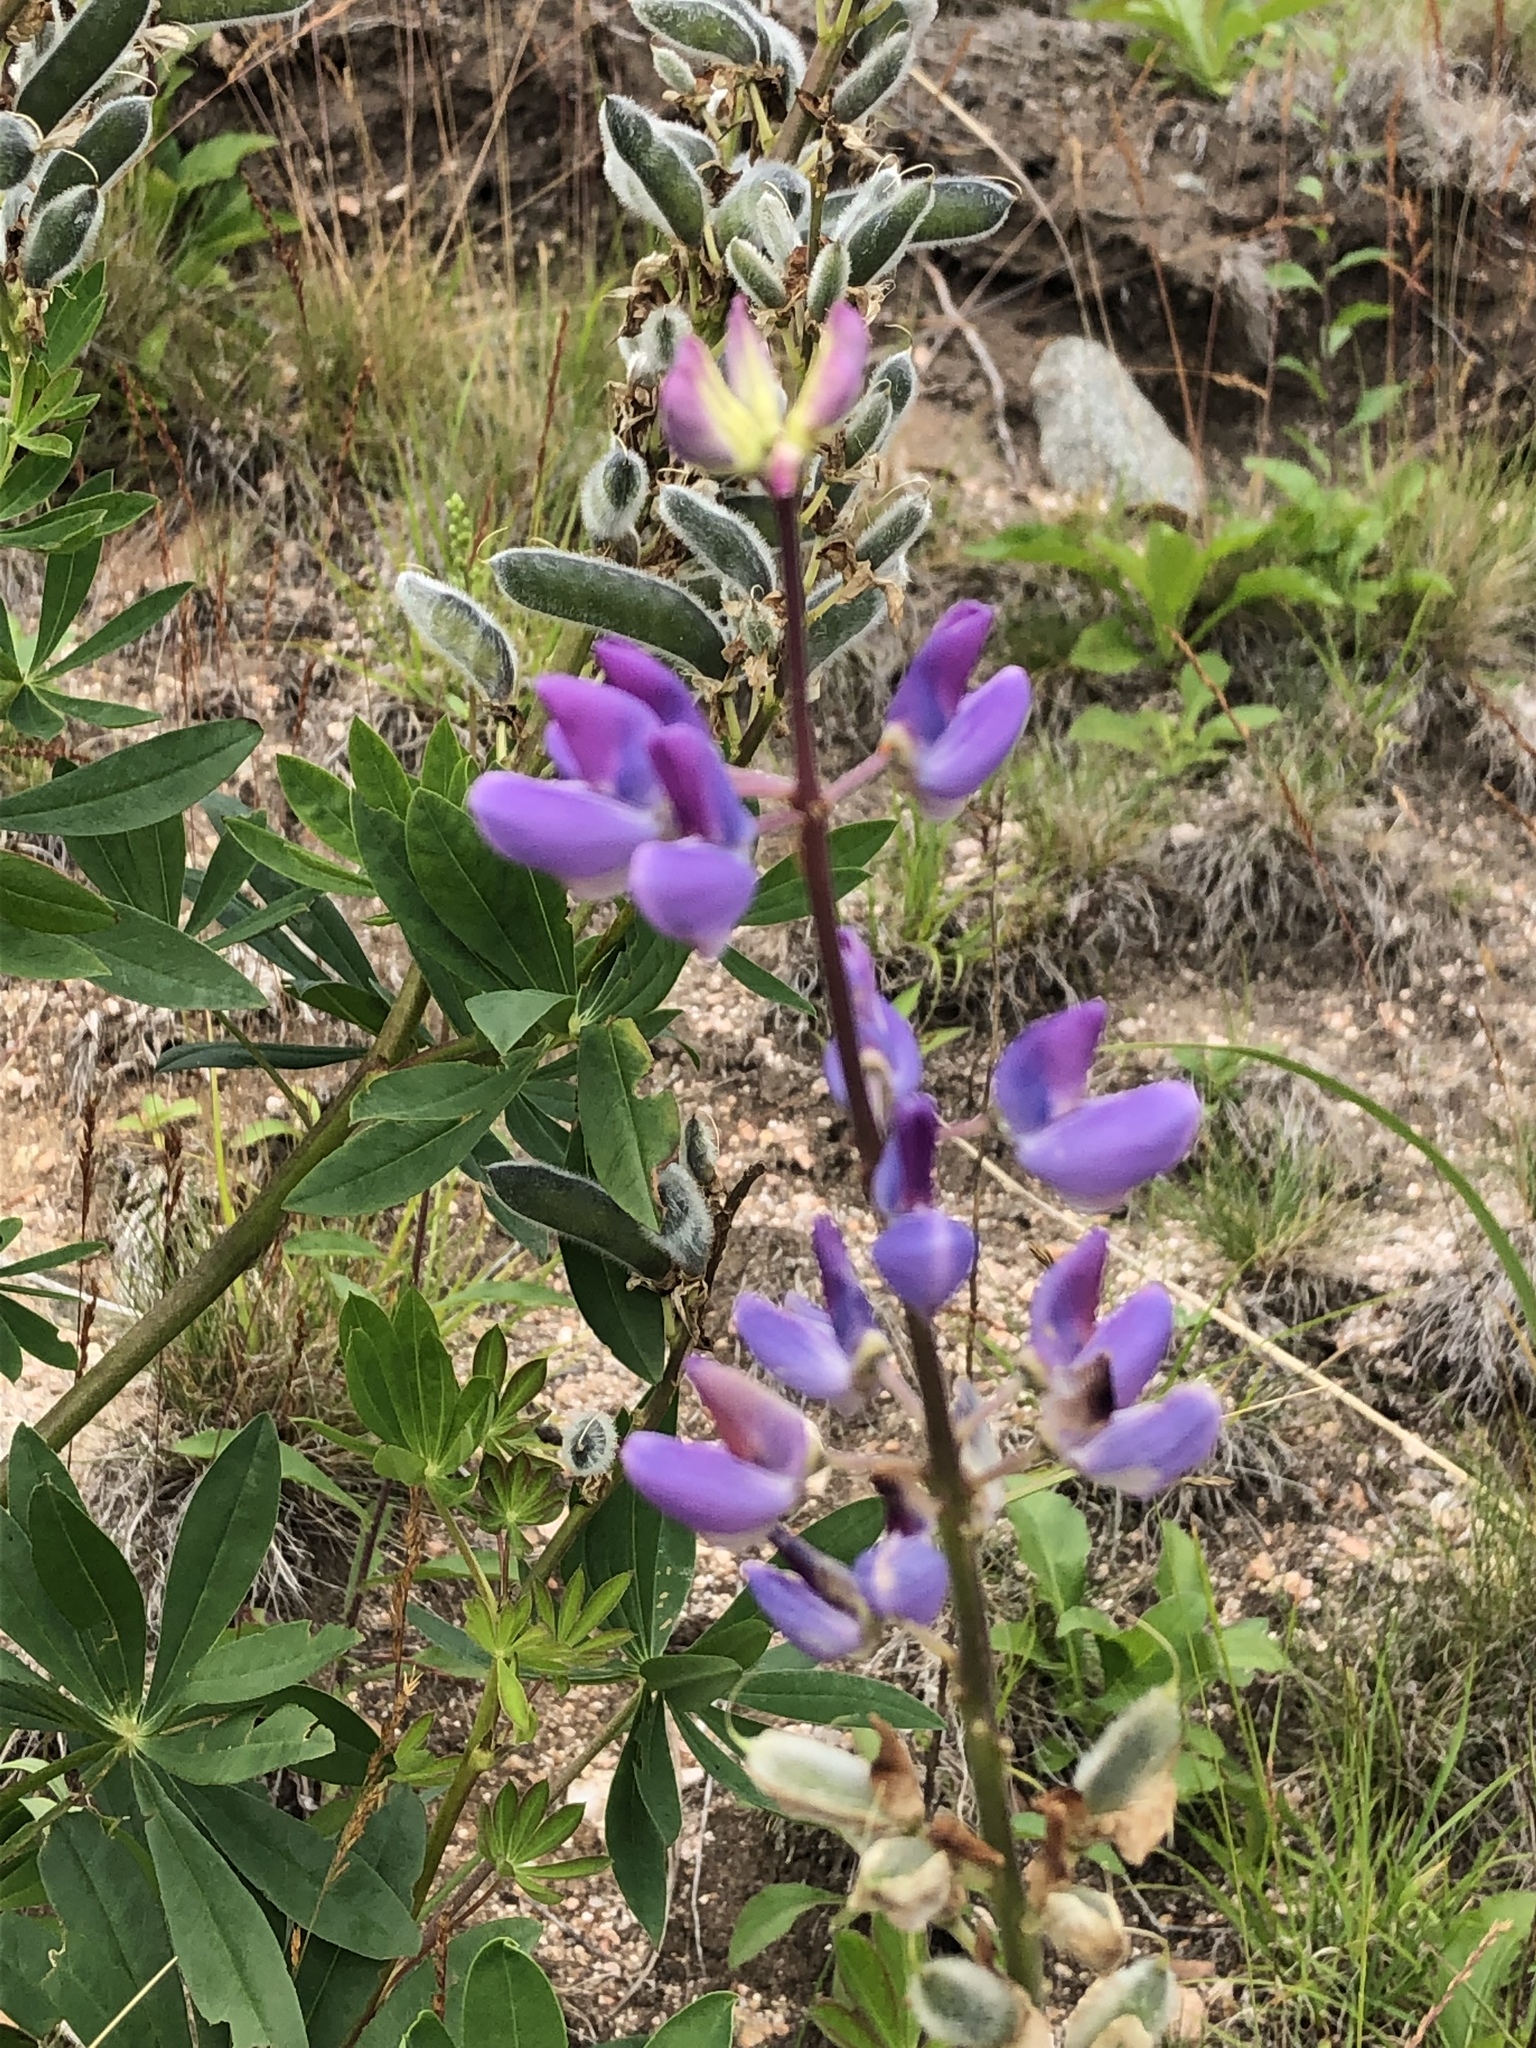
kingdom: Plantae
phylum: Tracheophyta
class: Magnoliopsida
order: Fabales
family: Fabaceae
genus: Lupinus
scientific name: Lupinus polyphyllus
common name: Garden lupin
